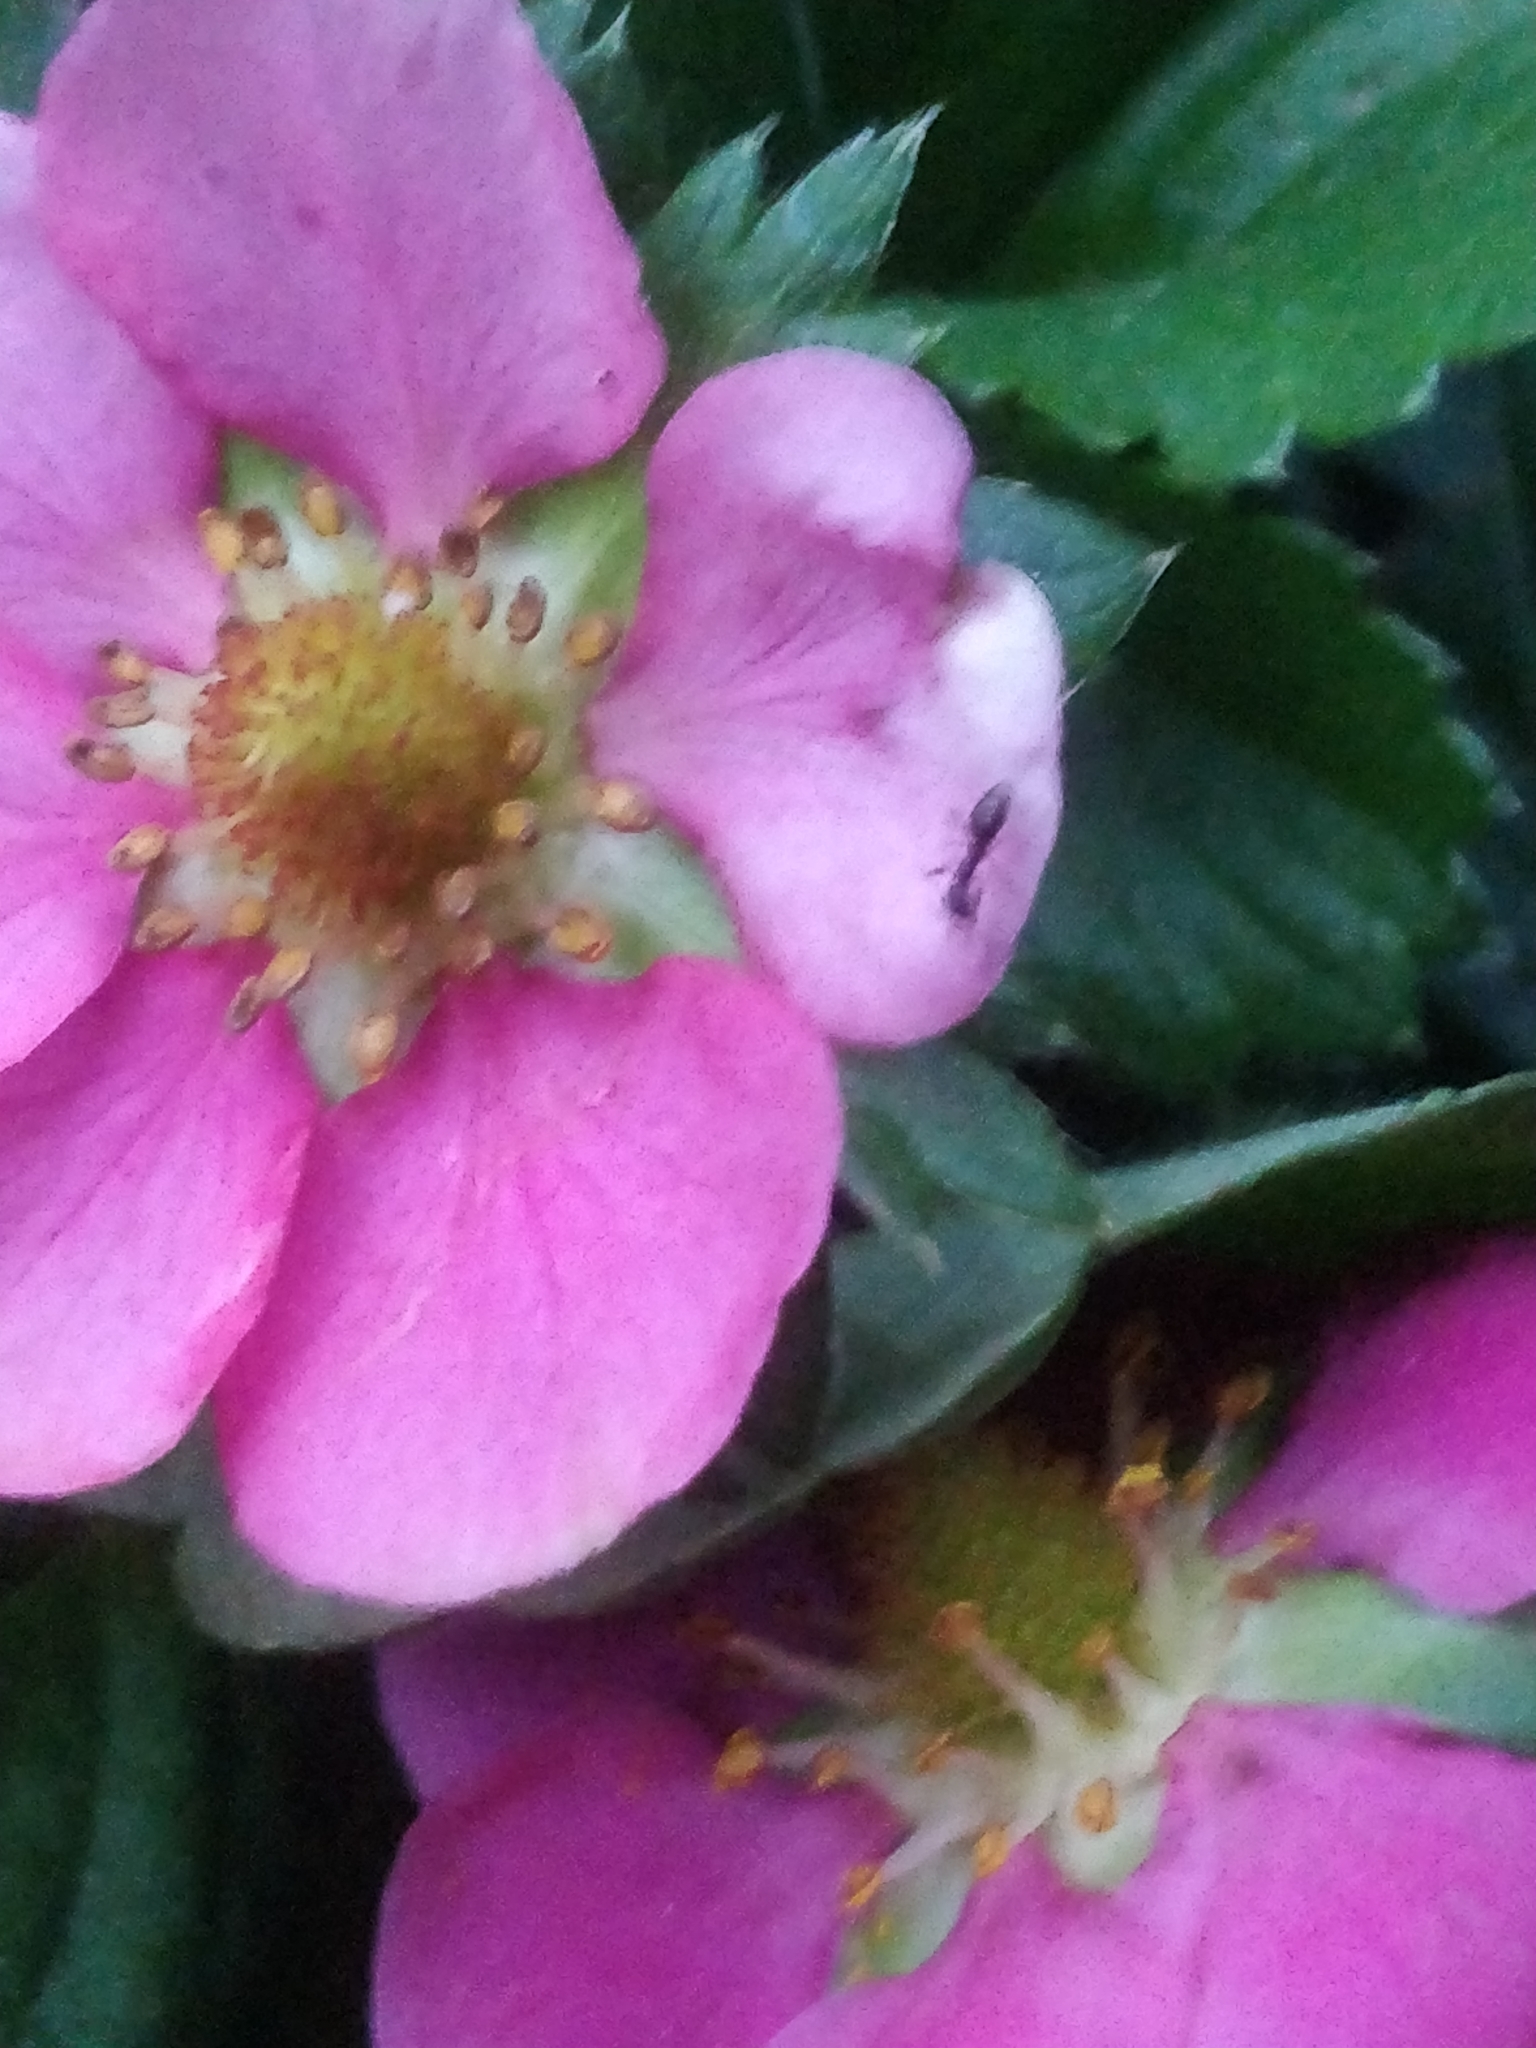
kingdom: Animalia
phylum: Arthropoda
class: Insecta
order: Hymenoptera
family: Formicidae
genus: Tapinoma
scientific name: Tapinoma sessile
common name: Odorous house ant
